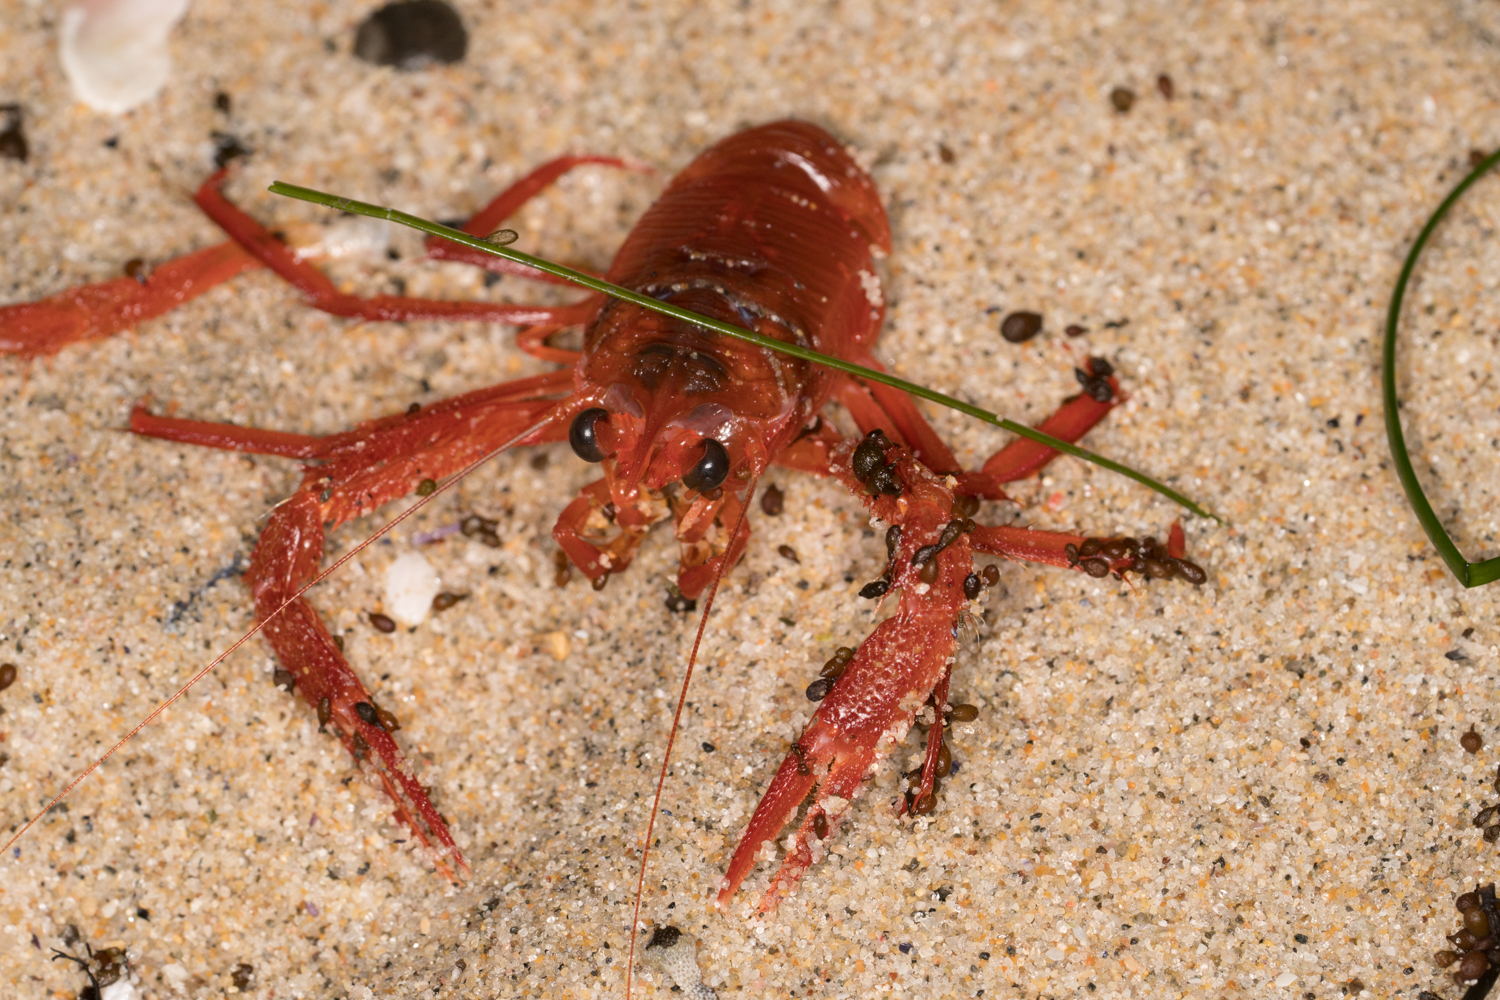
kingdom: Animalia
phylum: Arthropoda
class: Malacostraca
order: Decapoda
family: Munididae
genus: Grimothea
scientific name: Grimothea planipes
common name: Pelagic red crab
